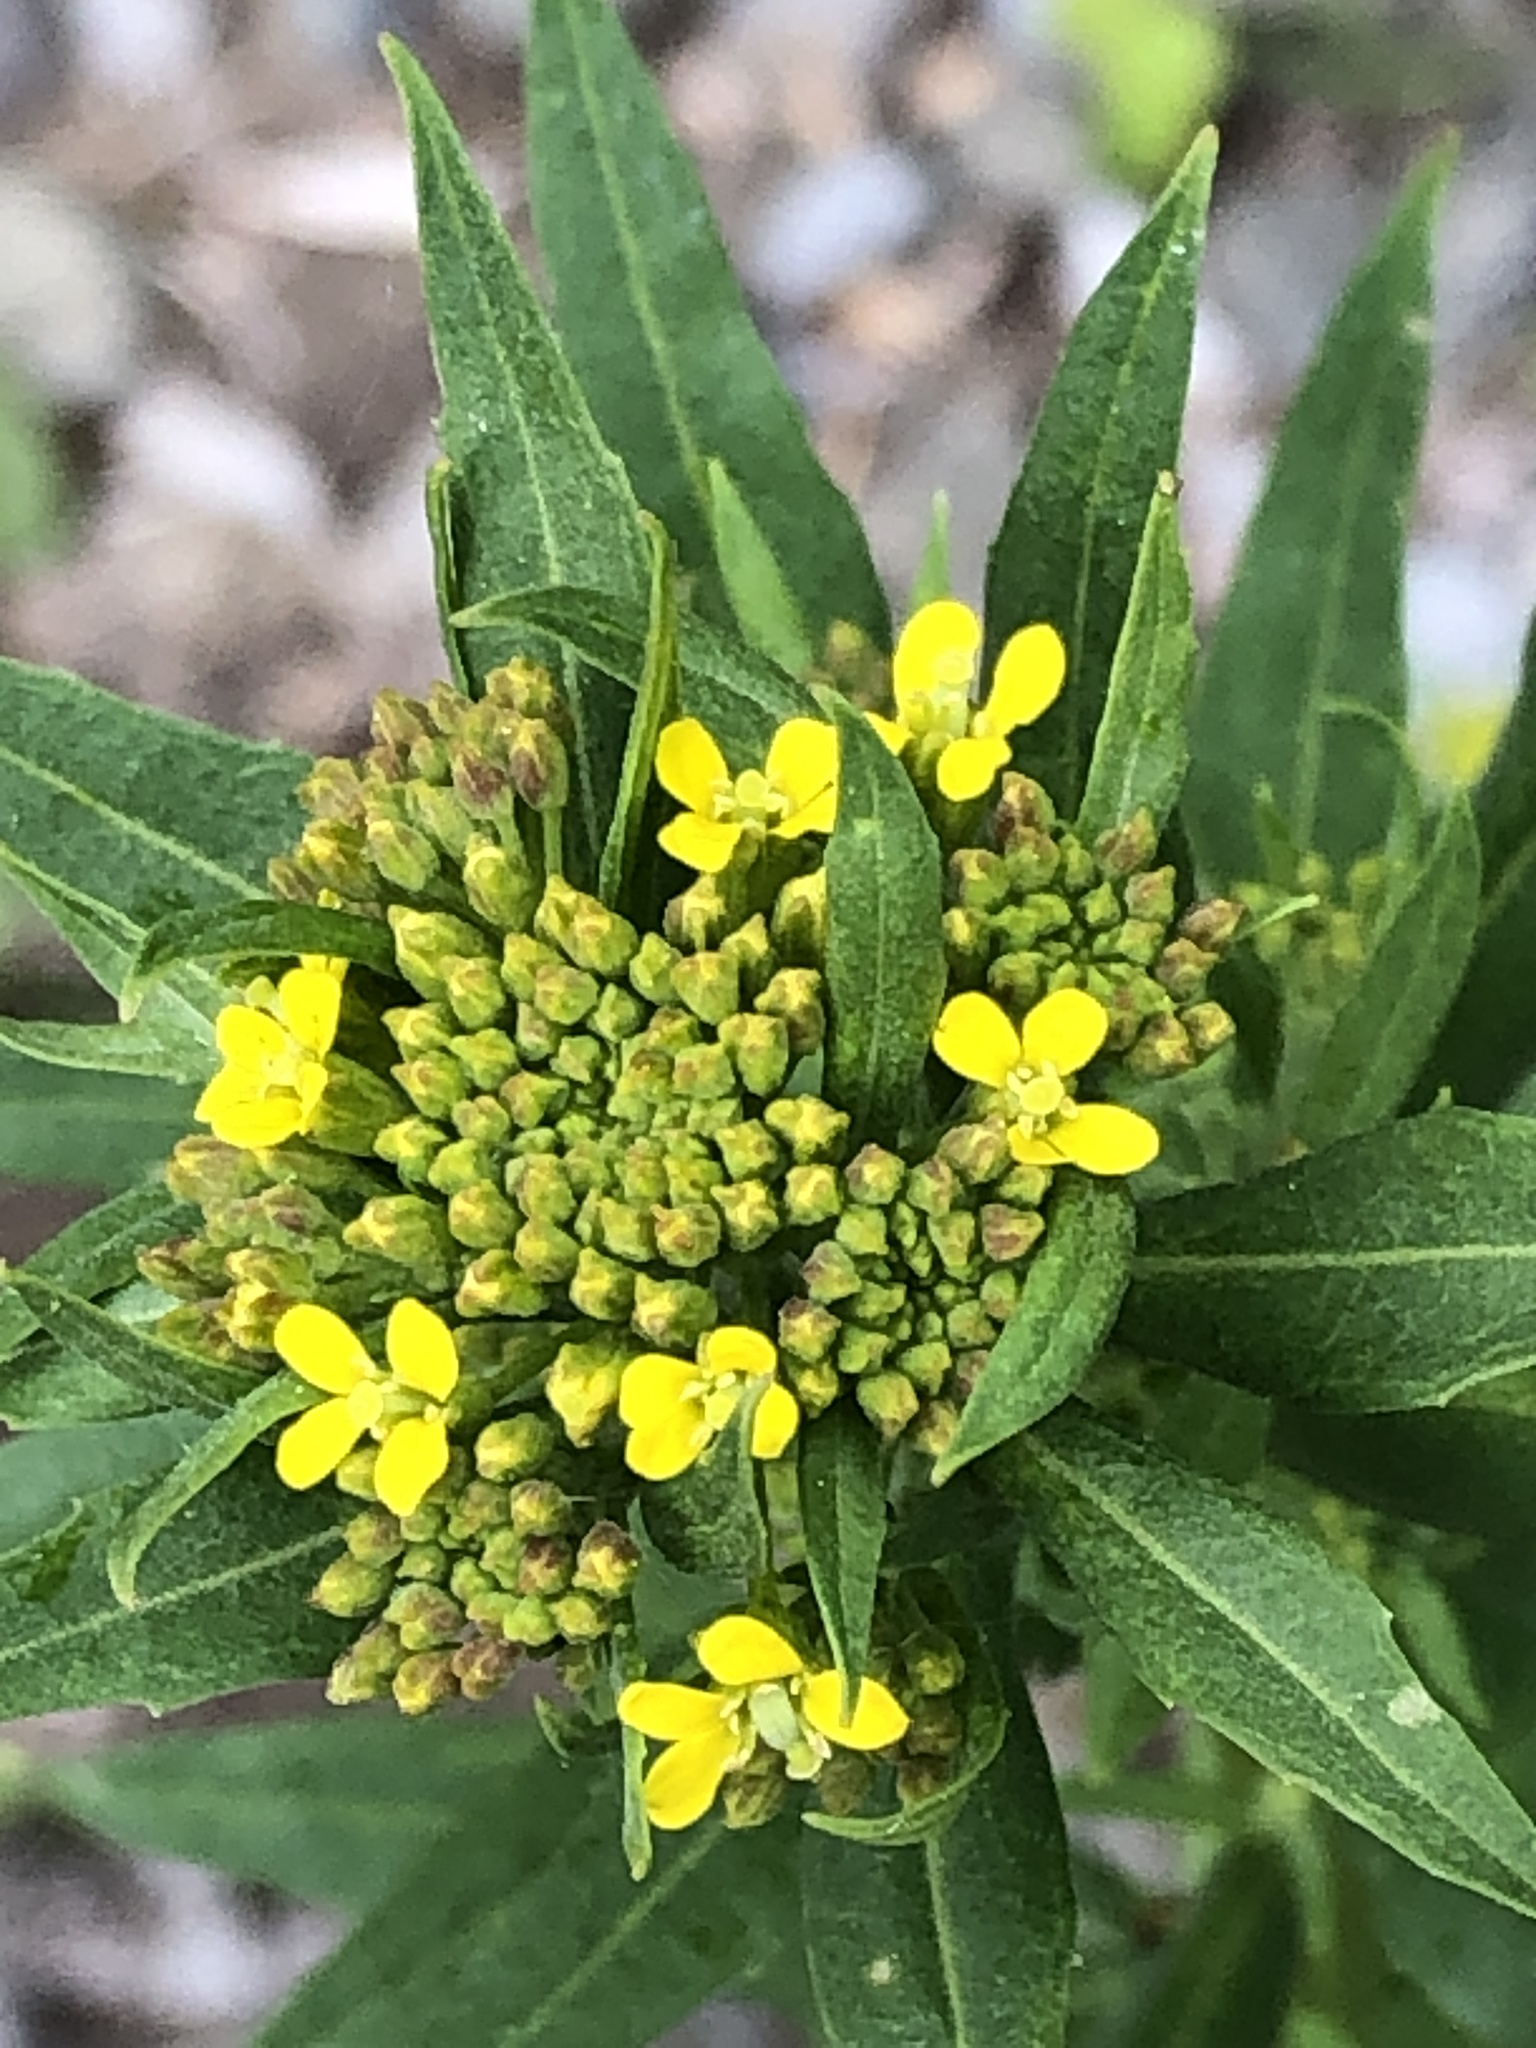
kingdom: Plantae
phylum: Tracheophyta
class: Magnoliopsida
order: Brassicales
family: Brassicaceae
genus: Erysimum
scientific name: Erysimum cheiranthoides
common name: Treacle mustard
